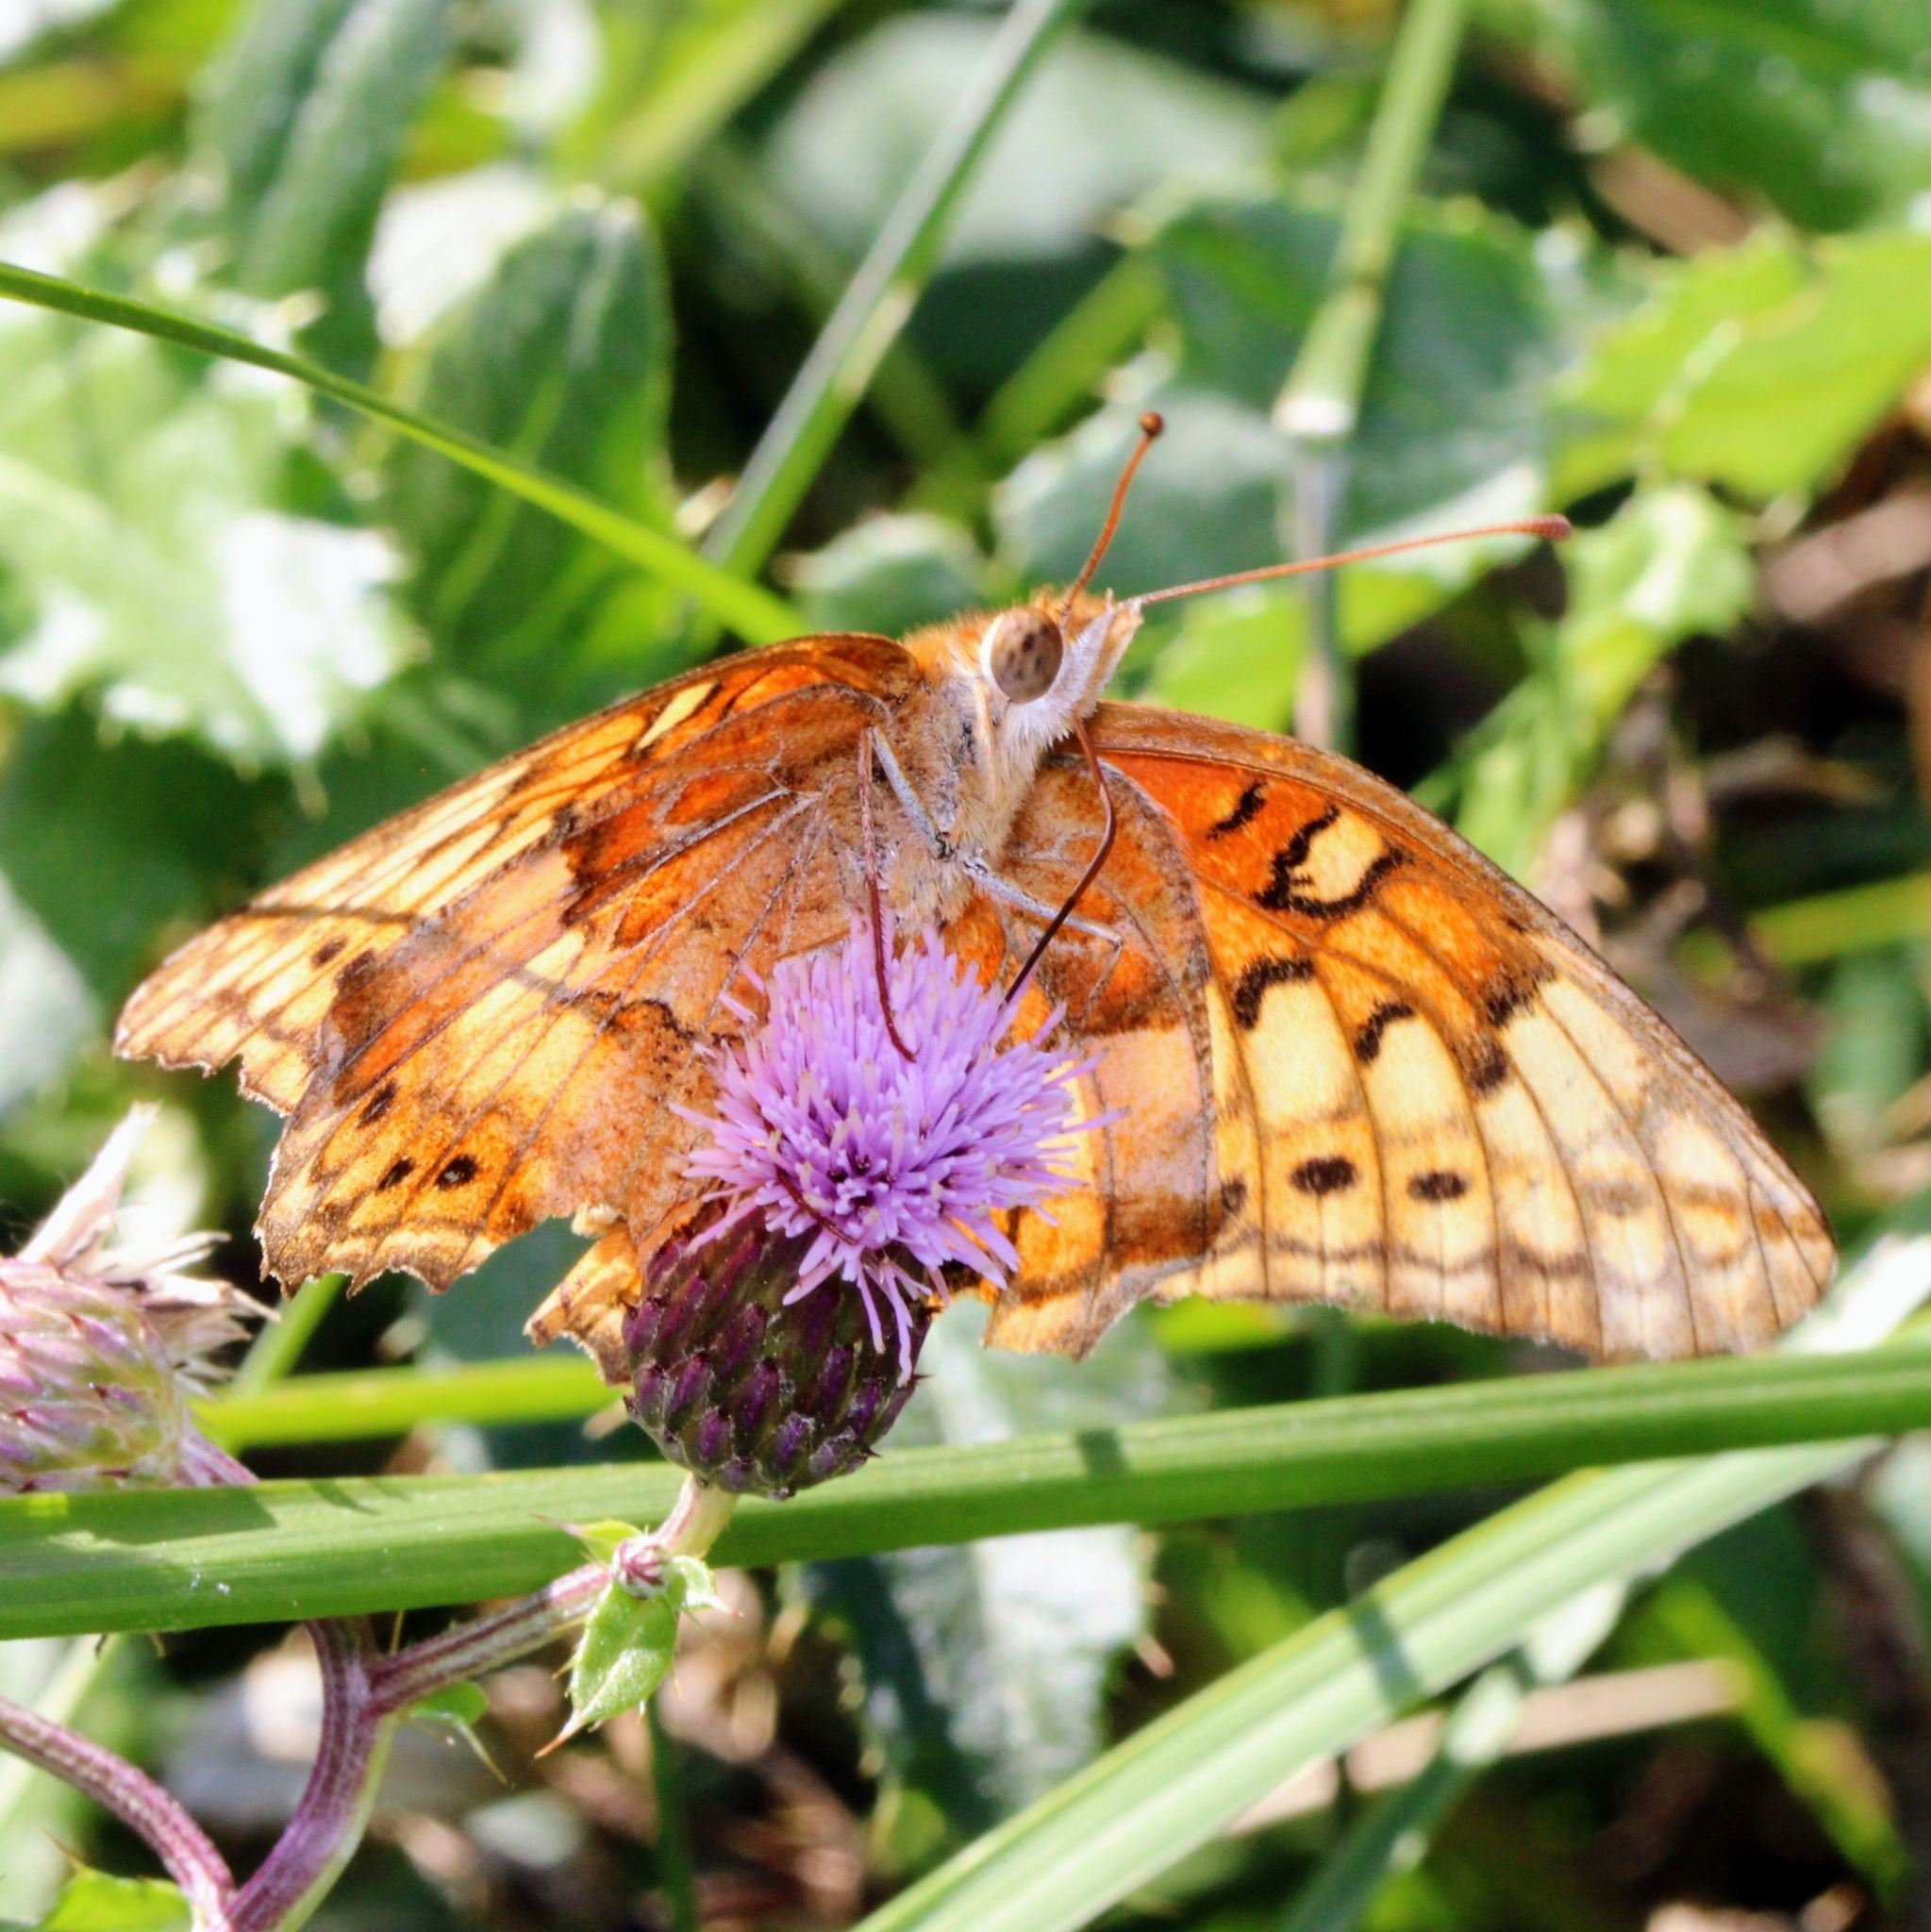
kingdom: Animalia
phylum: Arthropoda
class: Insecta
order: Lepidoptera
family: Nymphalidae
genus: Euptoieta
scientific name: Euptoieta claudia
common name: Variegated fritillary
